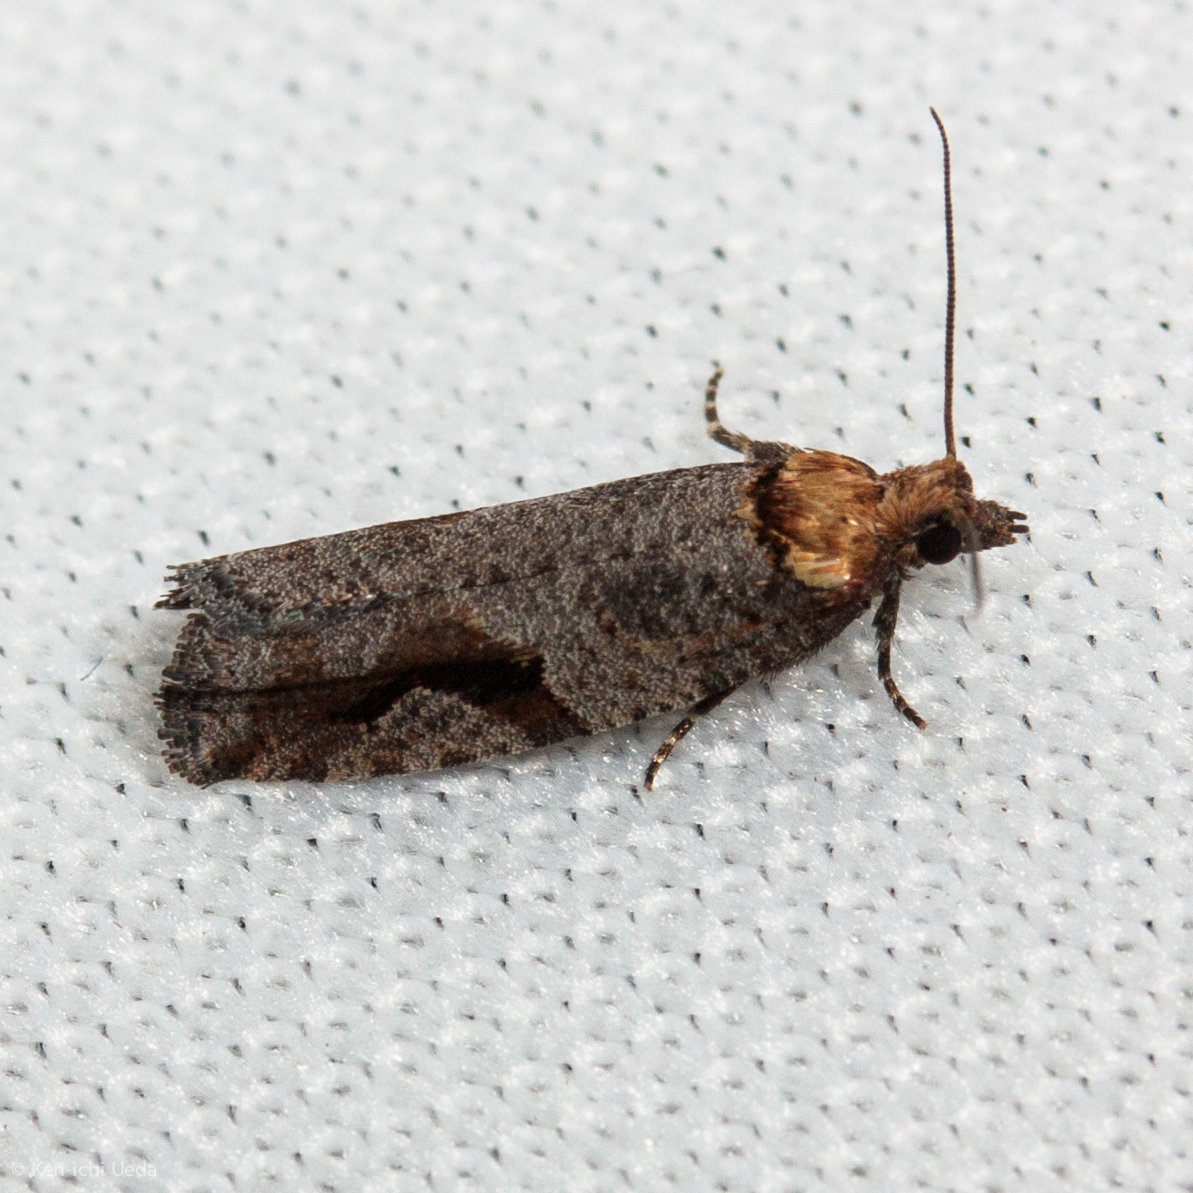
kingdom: Animalia
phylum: Arthropoda
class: Insecta
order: Lepidoptera
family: Tortricidae
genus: Epinotia
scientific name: Epinotia signiferana
